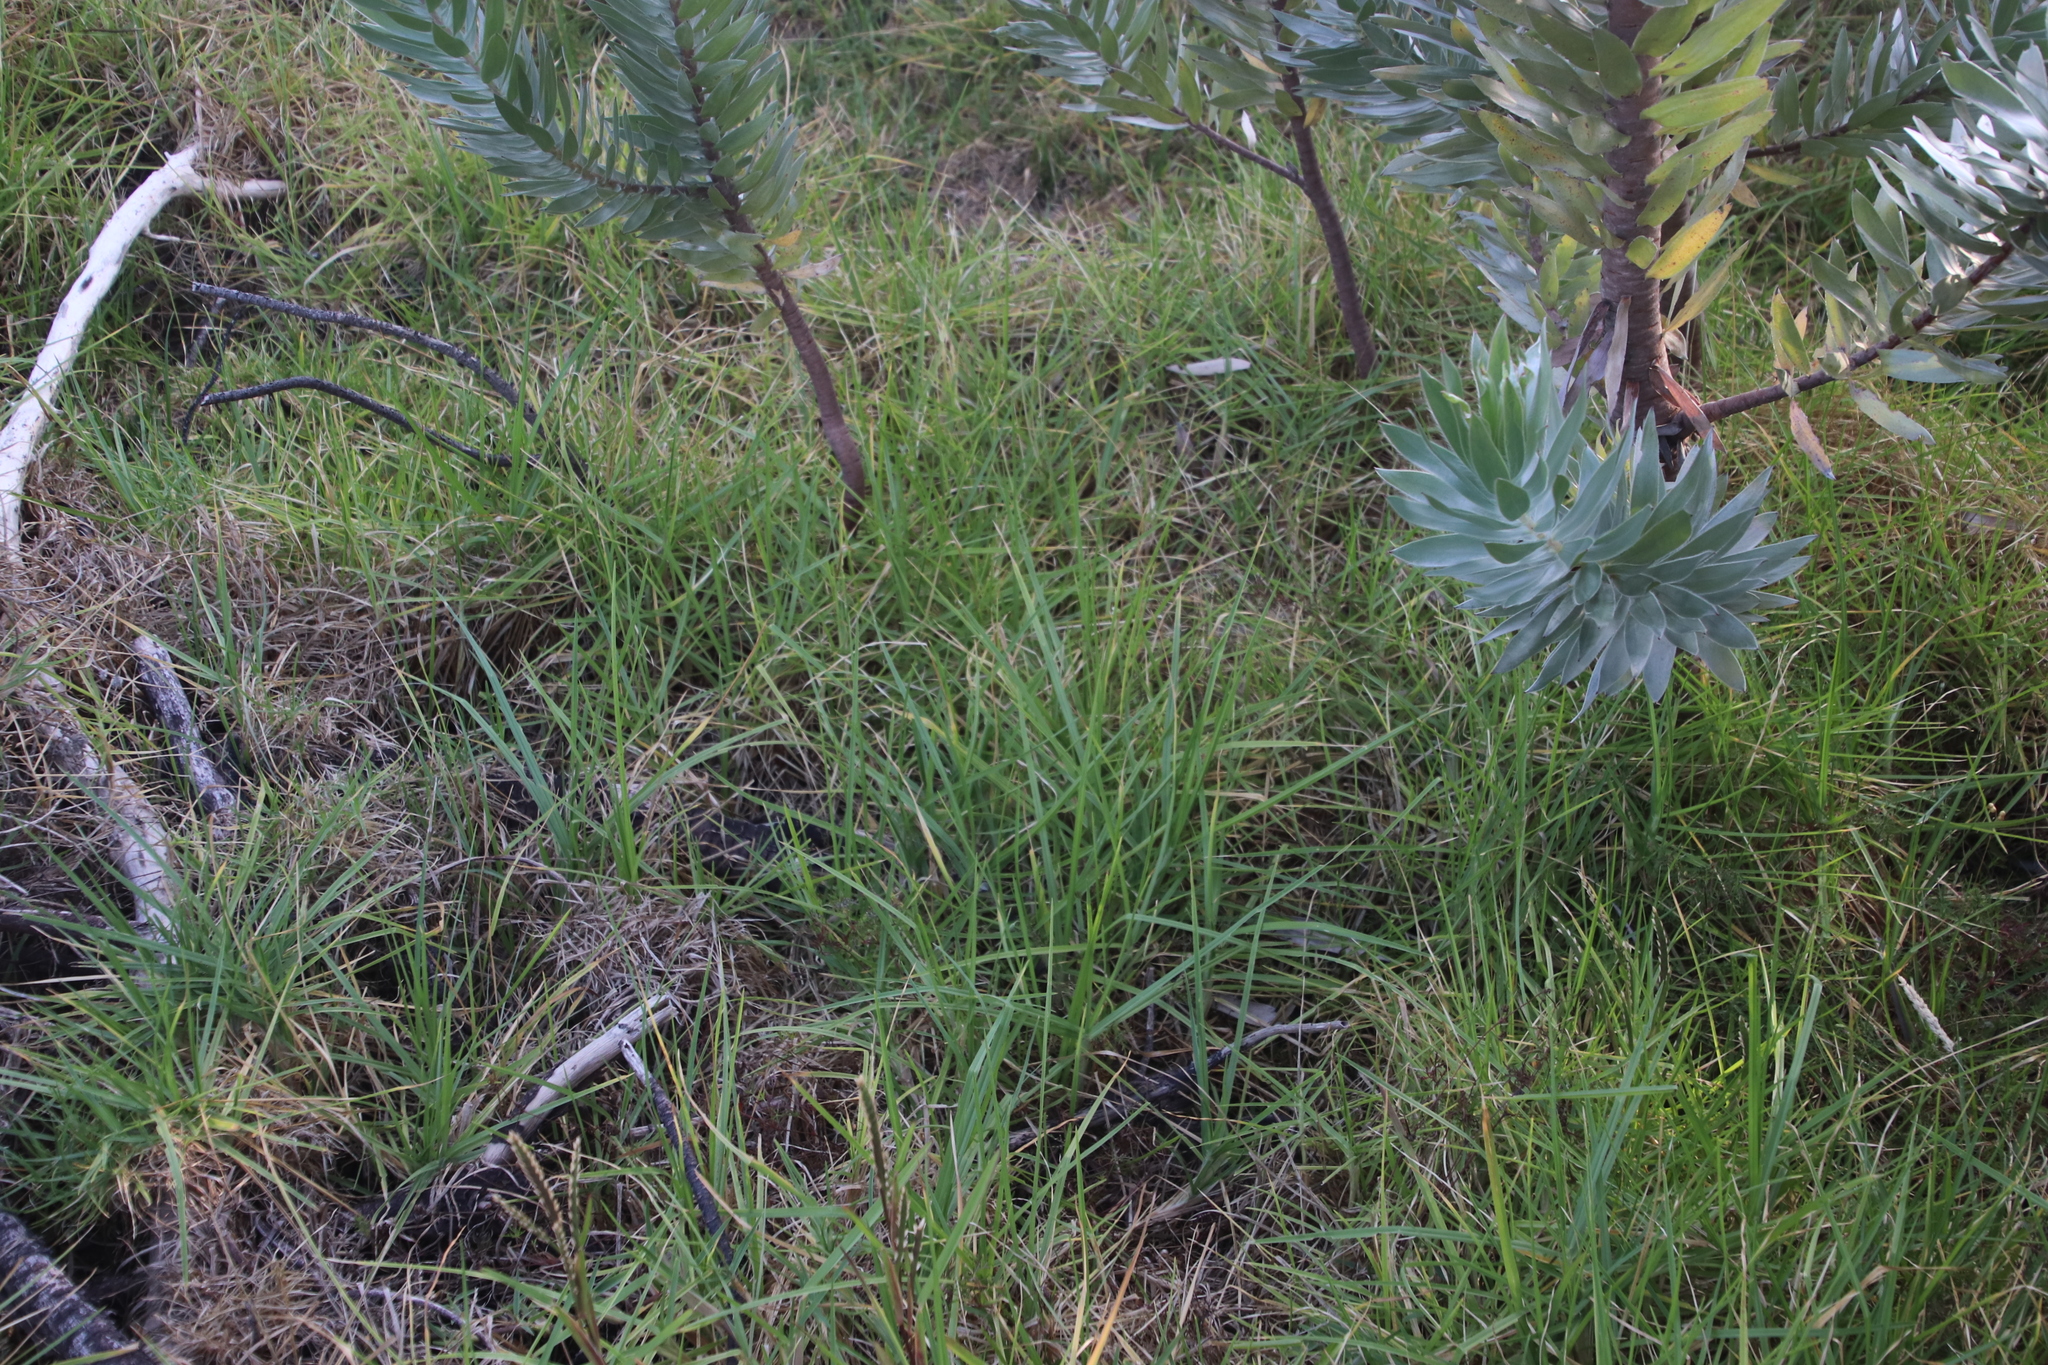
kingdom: Plantae
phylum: Tracheophyta
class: Liliopsida
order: Poales
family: Poaceae
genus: Cenchrus
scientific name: Cenchrus clandestinus
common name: Kikuyugrass
